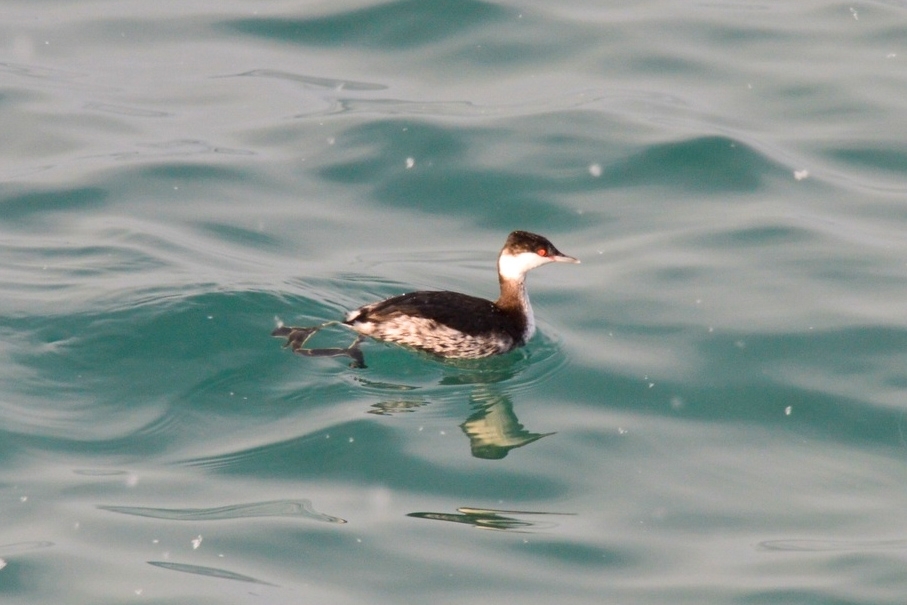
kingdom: Animalia
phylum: Chordata
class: Aves
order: Podicipediformes
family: Podicipedidae
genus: Podiceps
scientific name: Podiceps auritus
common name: Horned grebe
